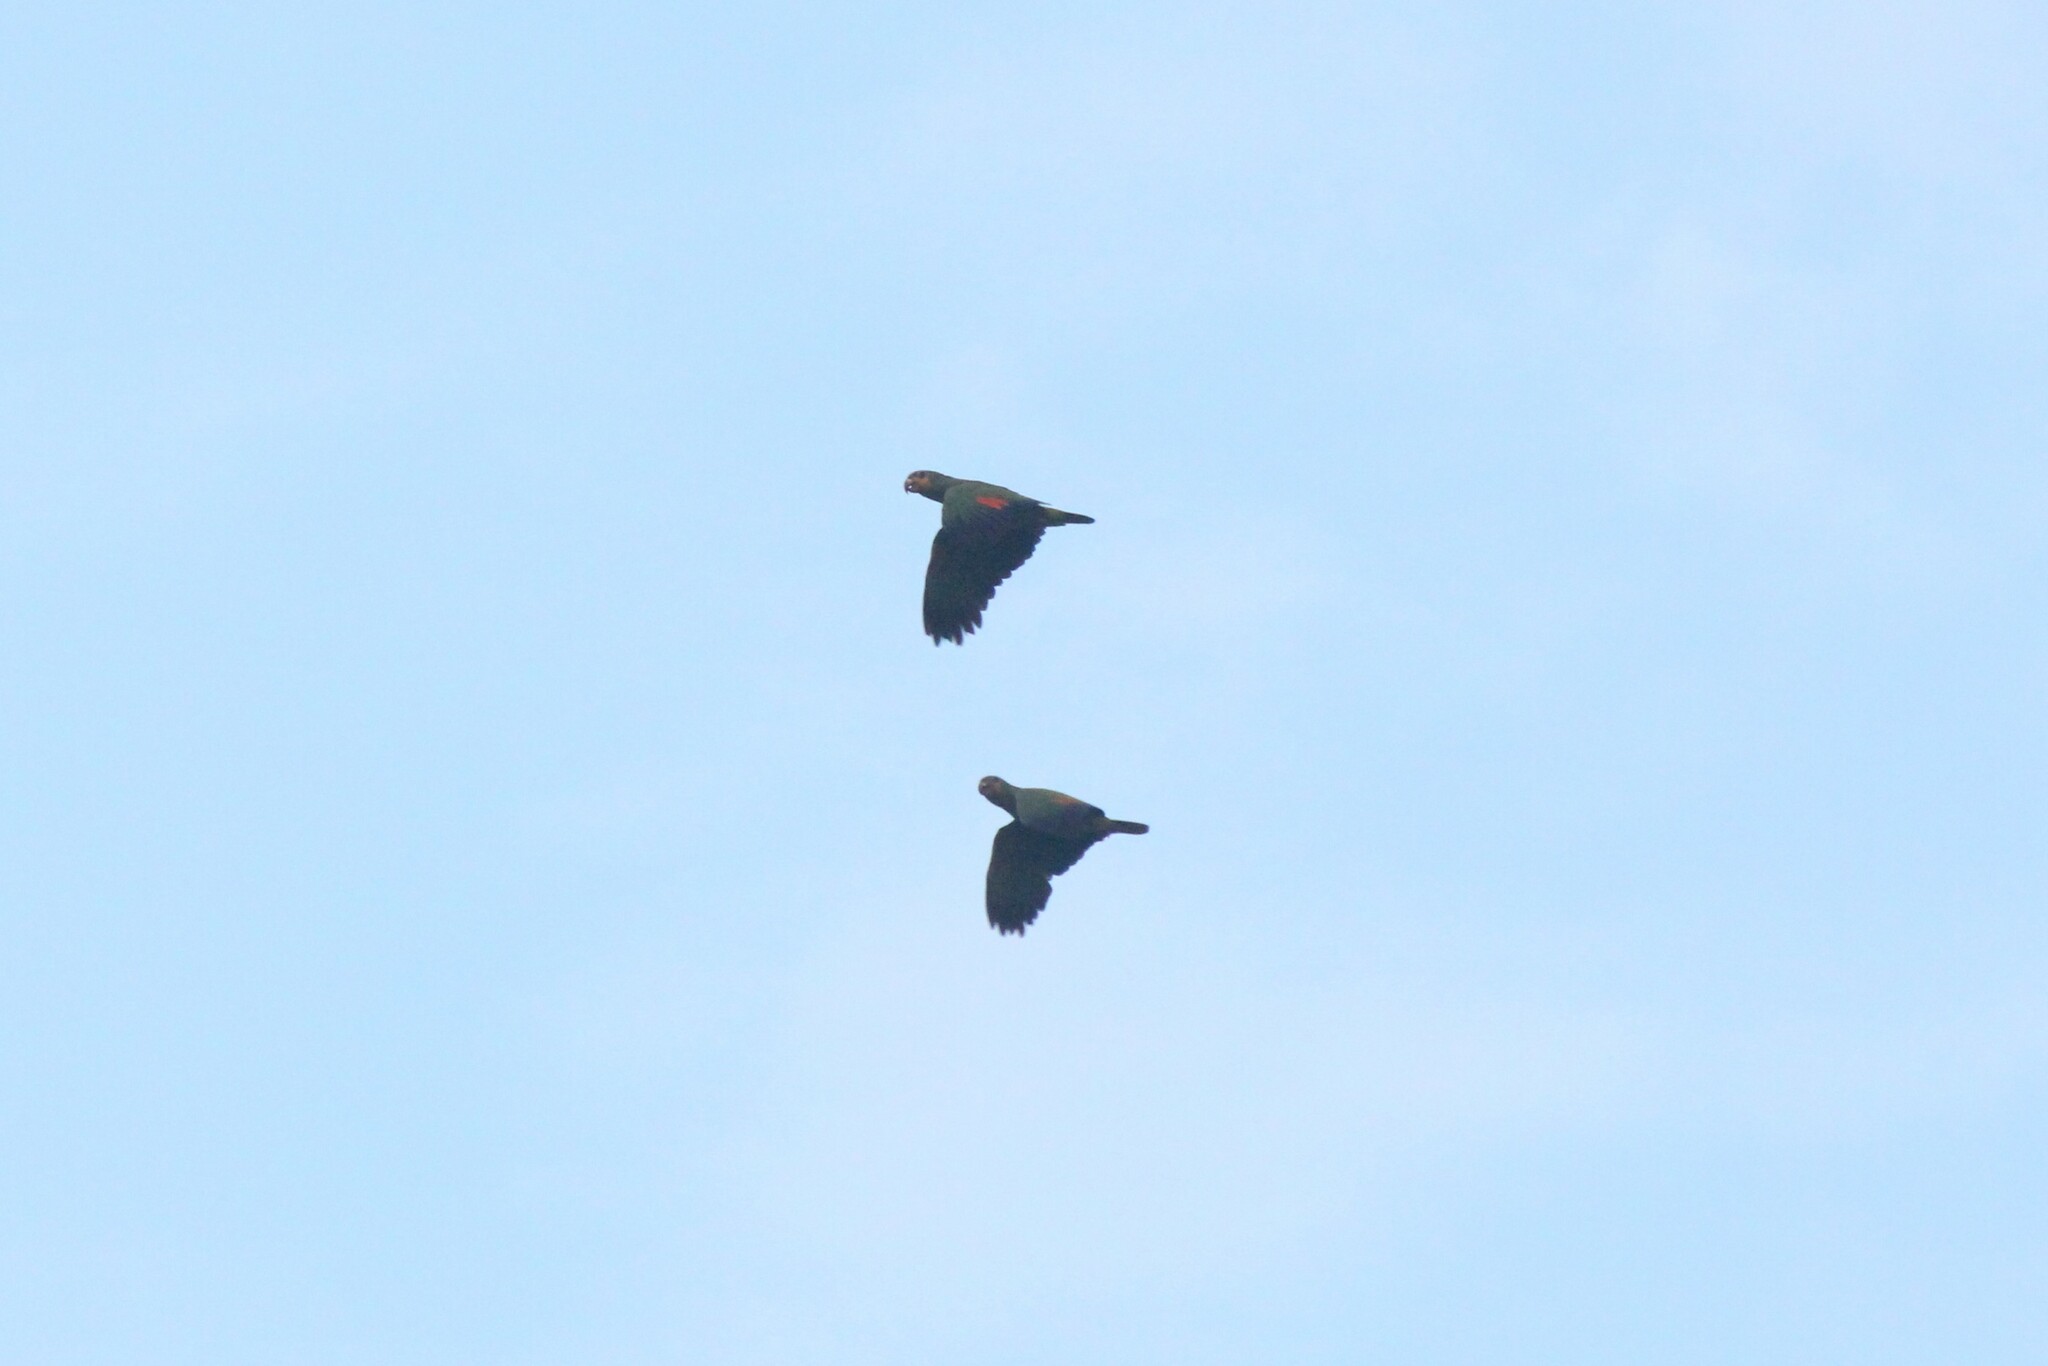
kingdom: Animalia
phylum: Chordata
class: Aves
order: Psittaciformes
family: Psittacidae
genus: Amazona
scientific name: Amazona amazonica
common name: Orange-winged amazon
